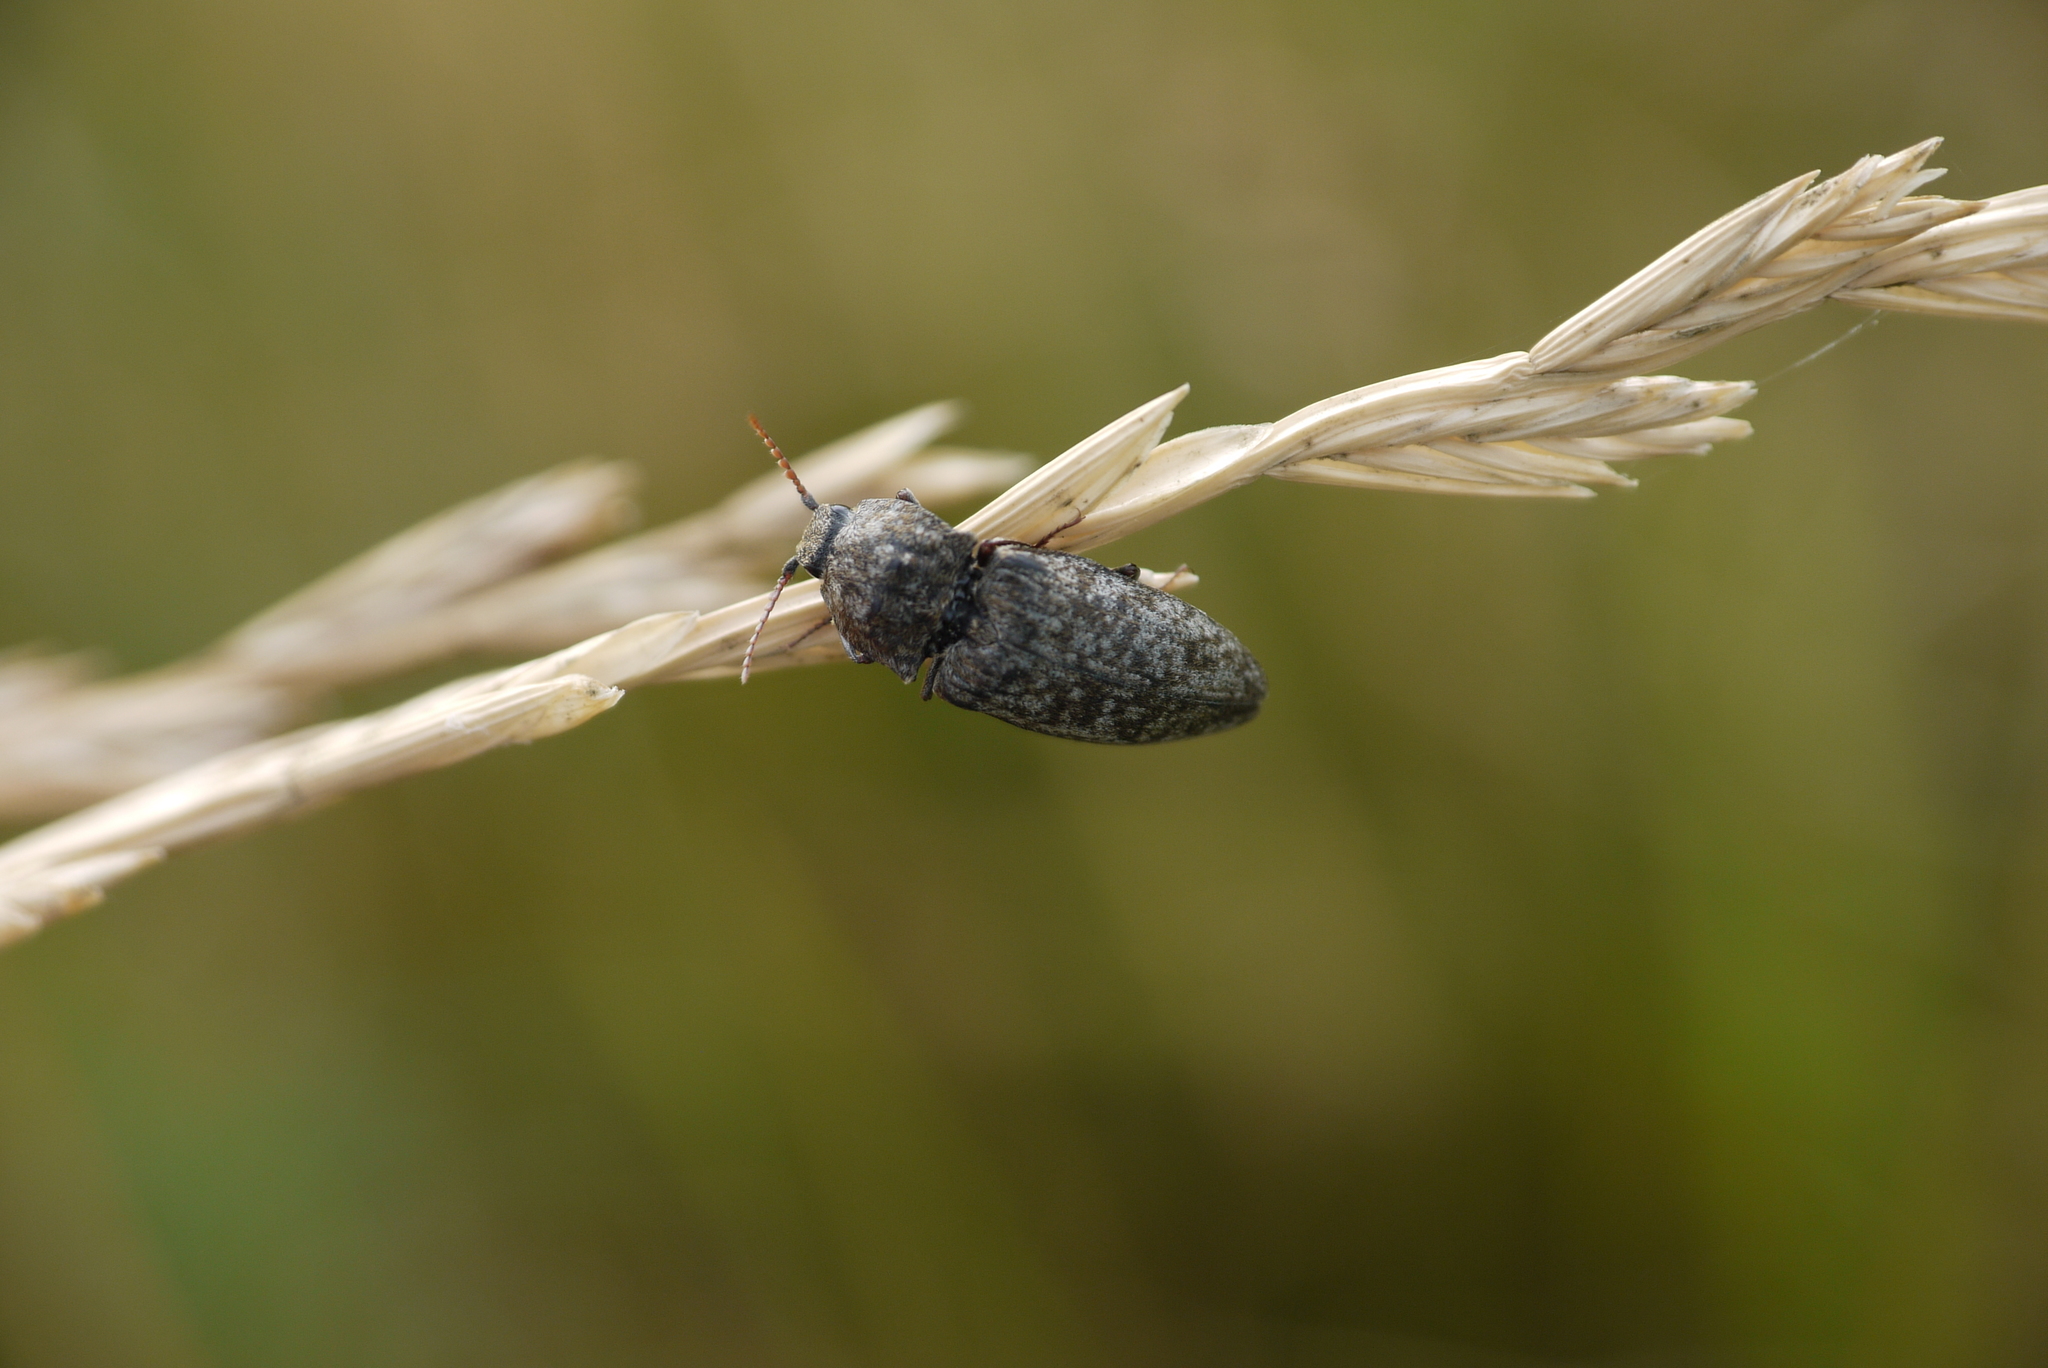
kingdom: Animalia
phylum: Arthropoda
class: Insecta
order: Coleoptera
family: Elateridae
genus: Agrypnus
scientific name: Agrypnus murinus
